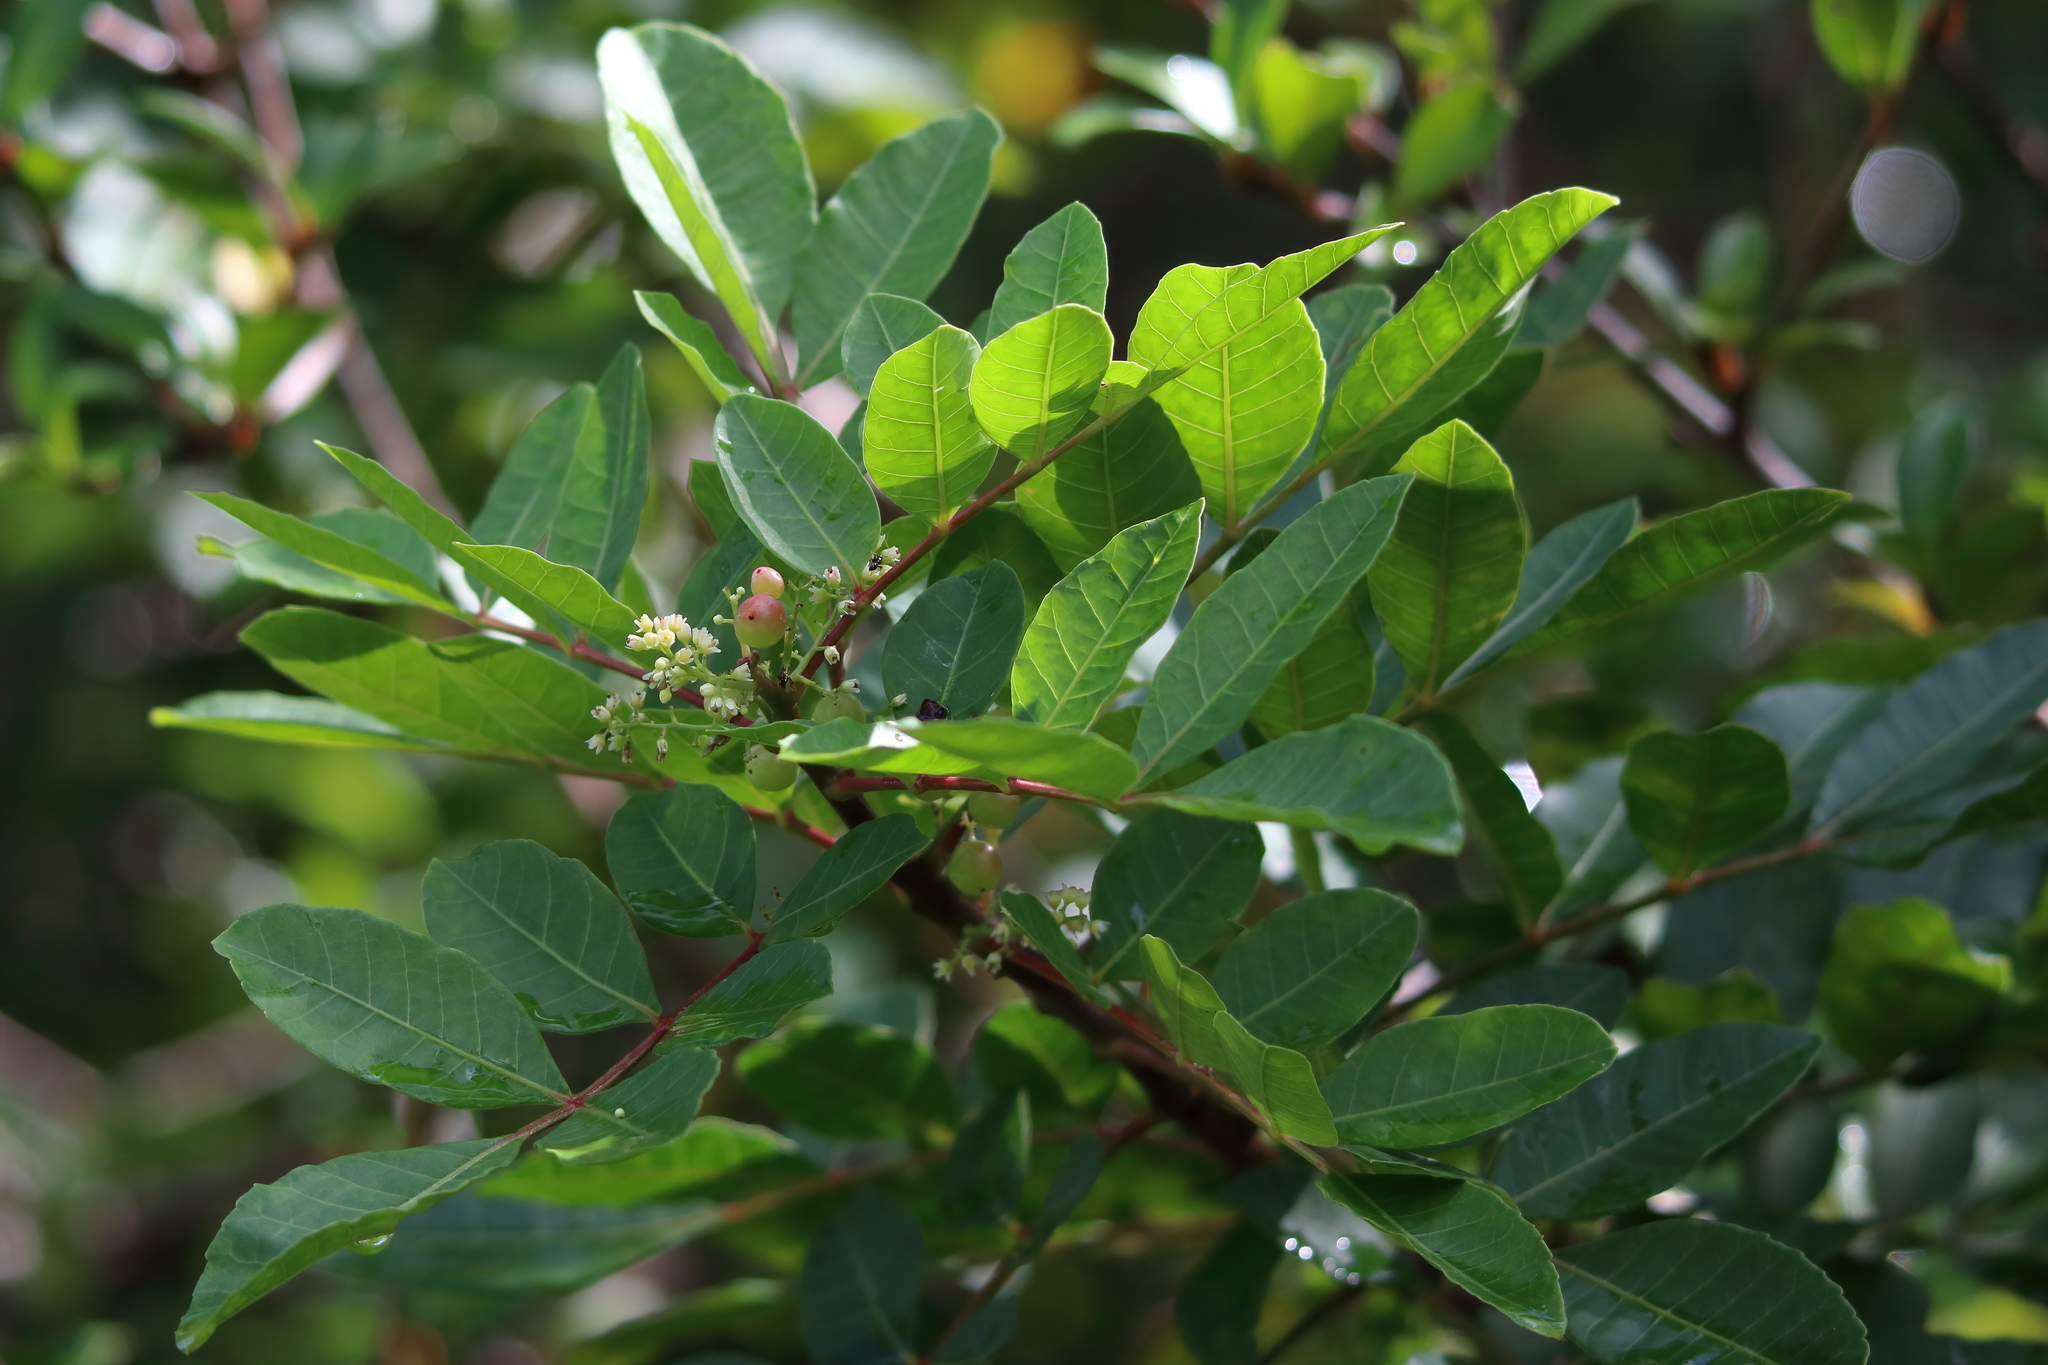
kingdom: Plantae
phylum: Tracheophyta
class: Magnoliopsida
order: Sapindales
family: Anacardiaceae
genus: Schinus
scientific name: Schinus terebinthifolia
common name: Brazilian peppertree
